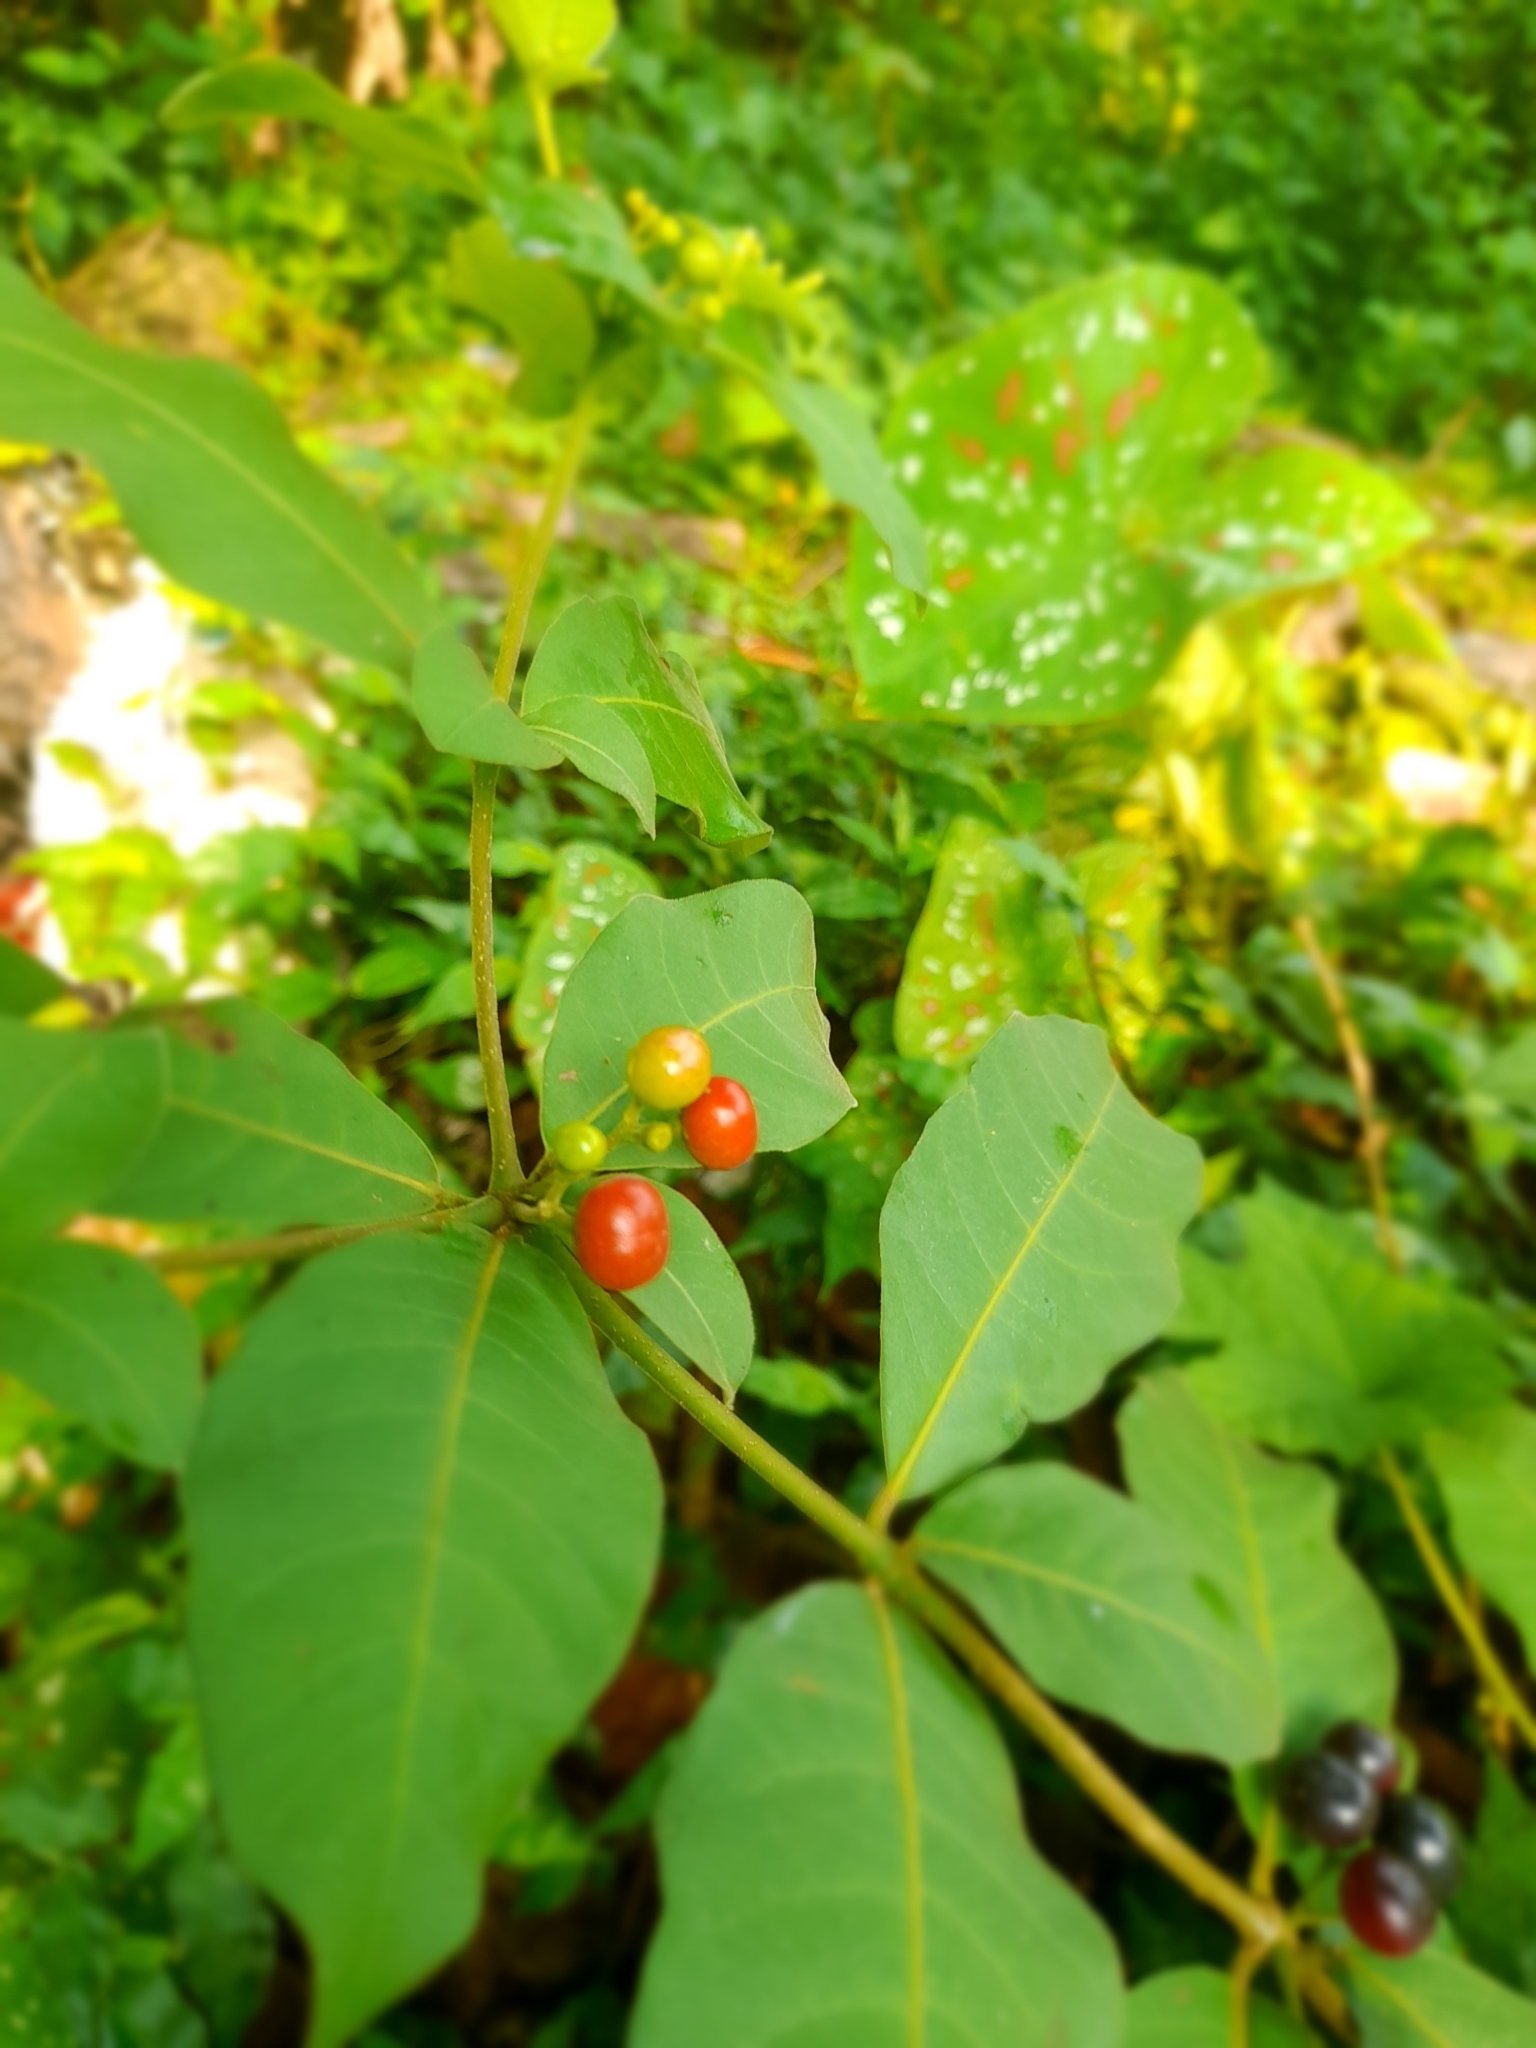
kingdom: Plantae
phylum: Tracheophyta
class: Magnoliopsida
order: Gentianales
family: Apocynaceae
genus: Rauvolfia
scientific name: Rauvolfia tetraphylla
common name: Four-leaf devil-pepper
